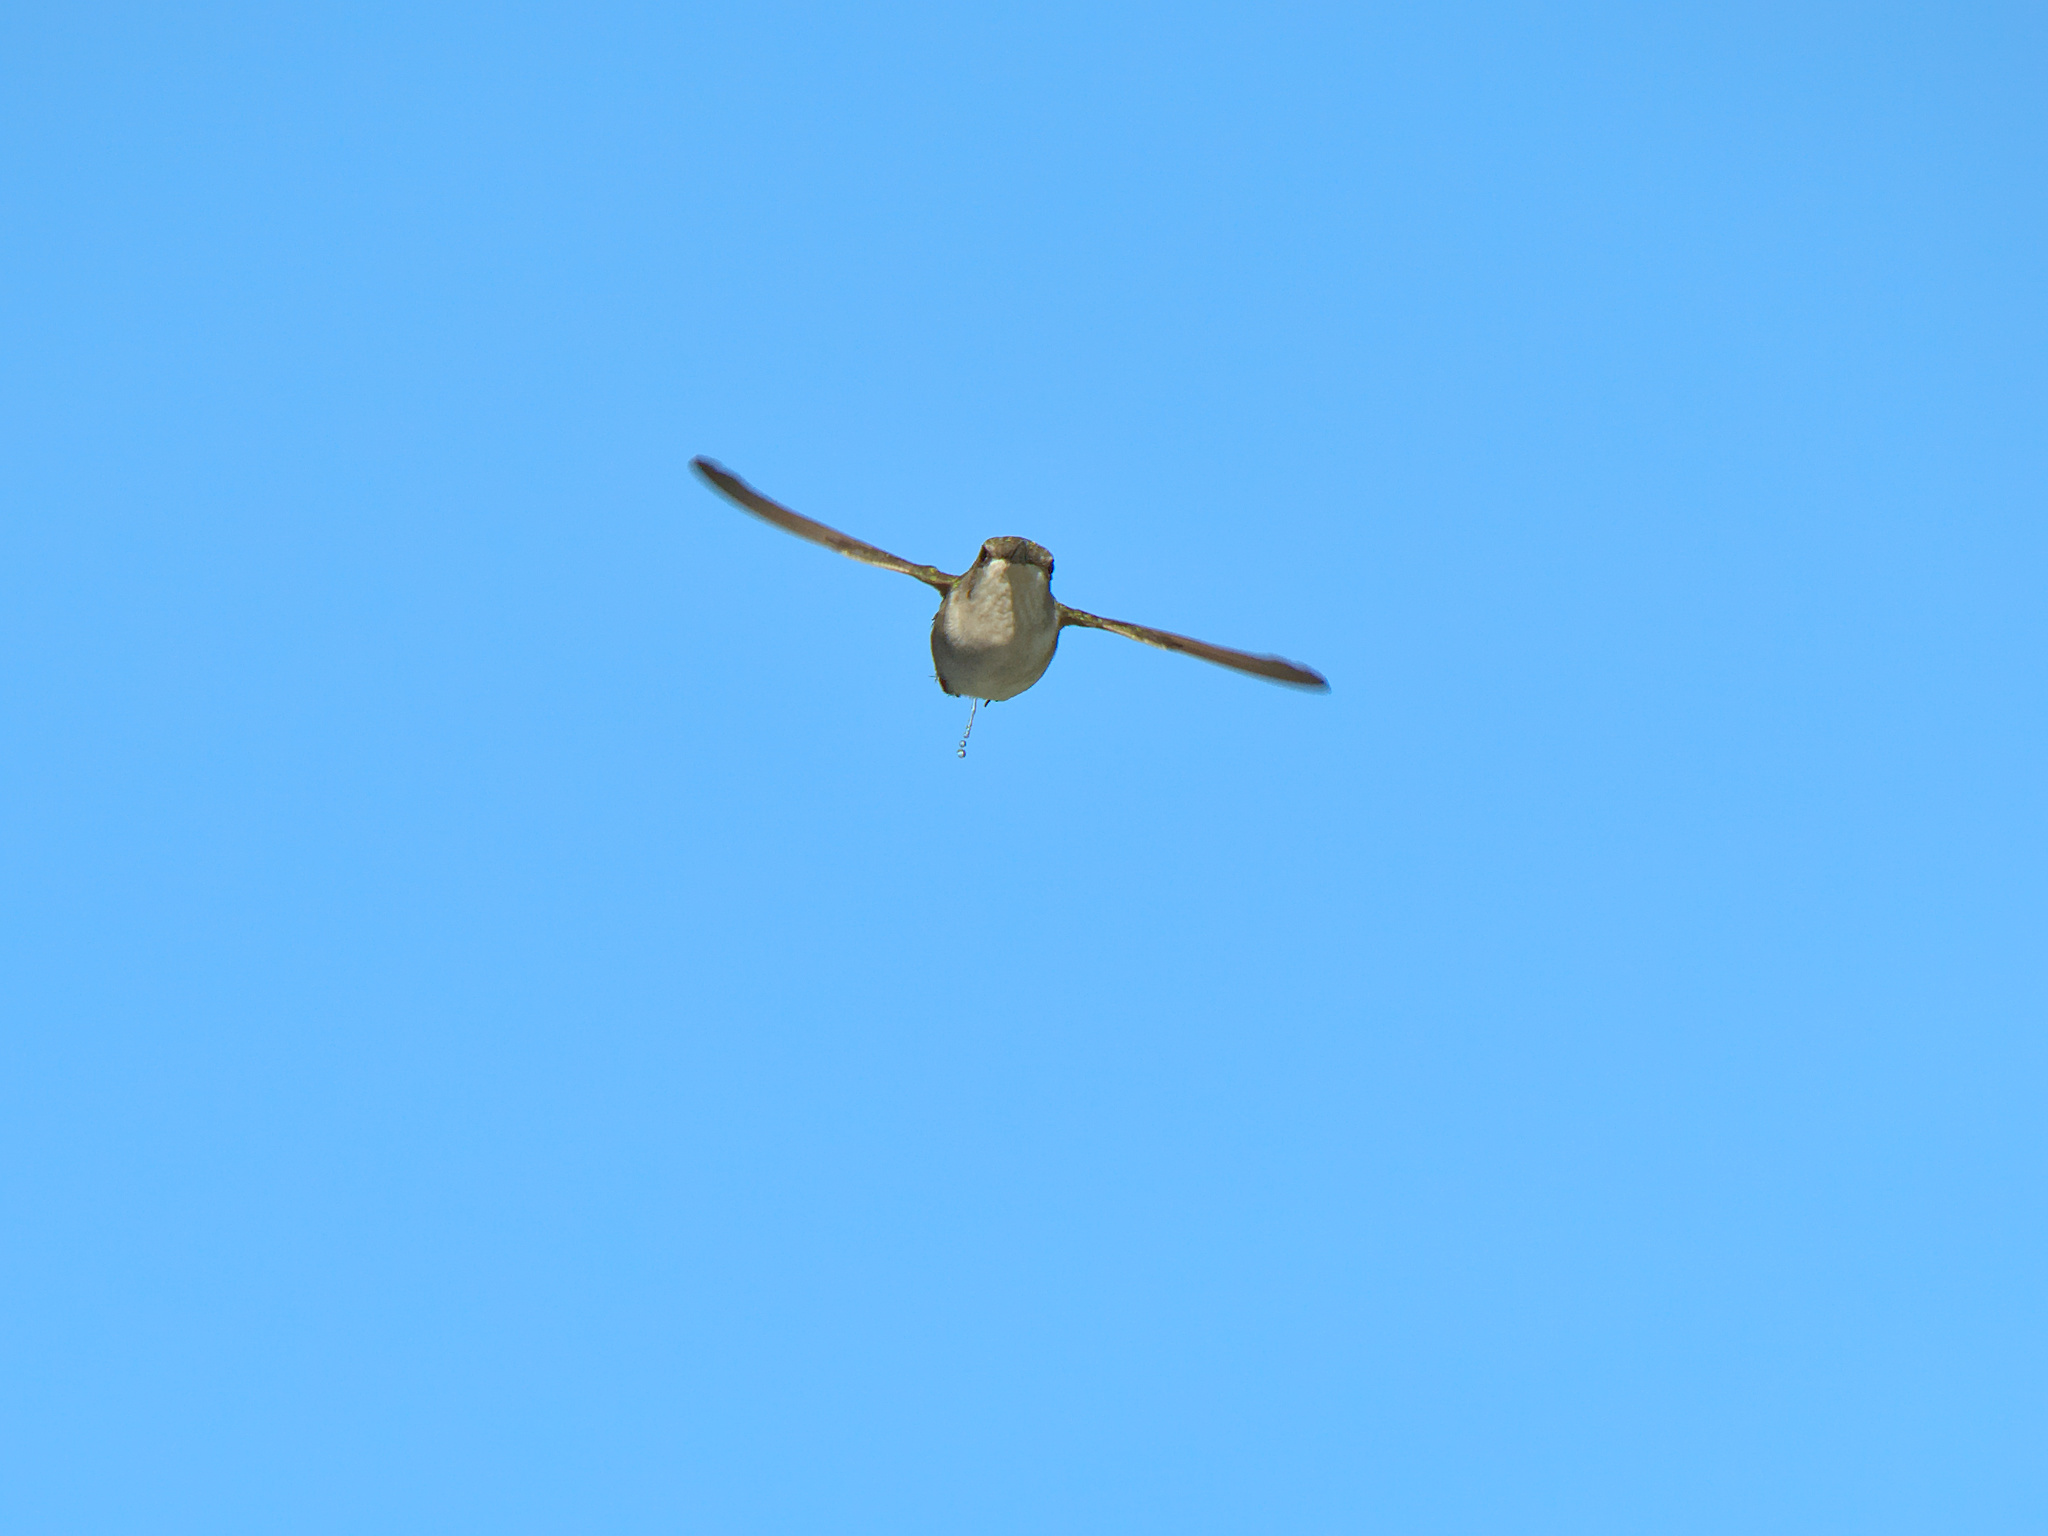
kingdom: Animalia
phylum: Chordata
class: Aves
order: Apodiformes
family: Trochilidae
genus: Archilochus
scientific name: Archilochus colubris
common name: Ruby-throated hummingbird
